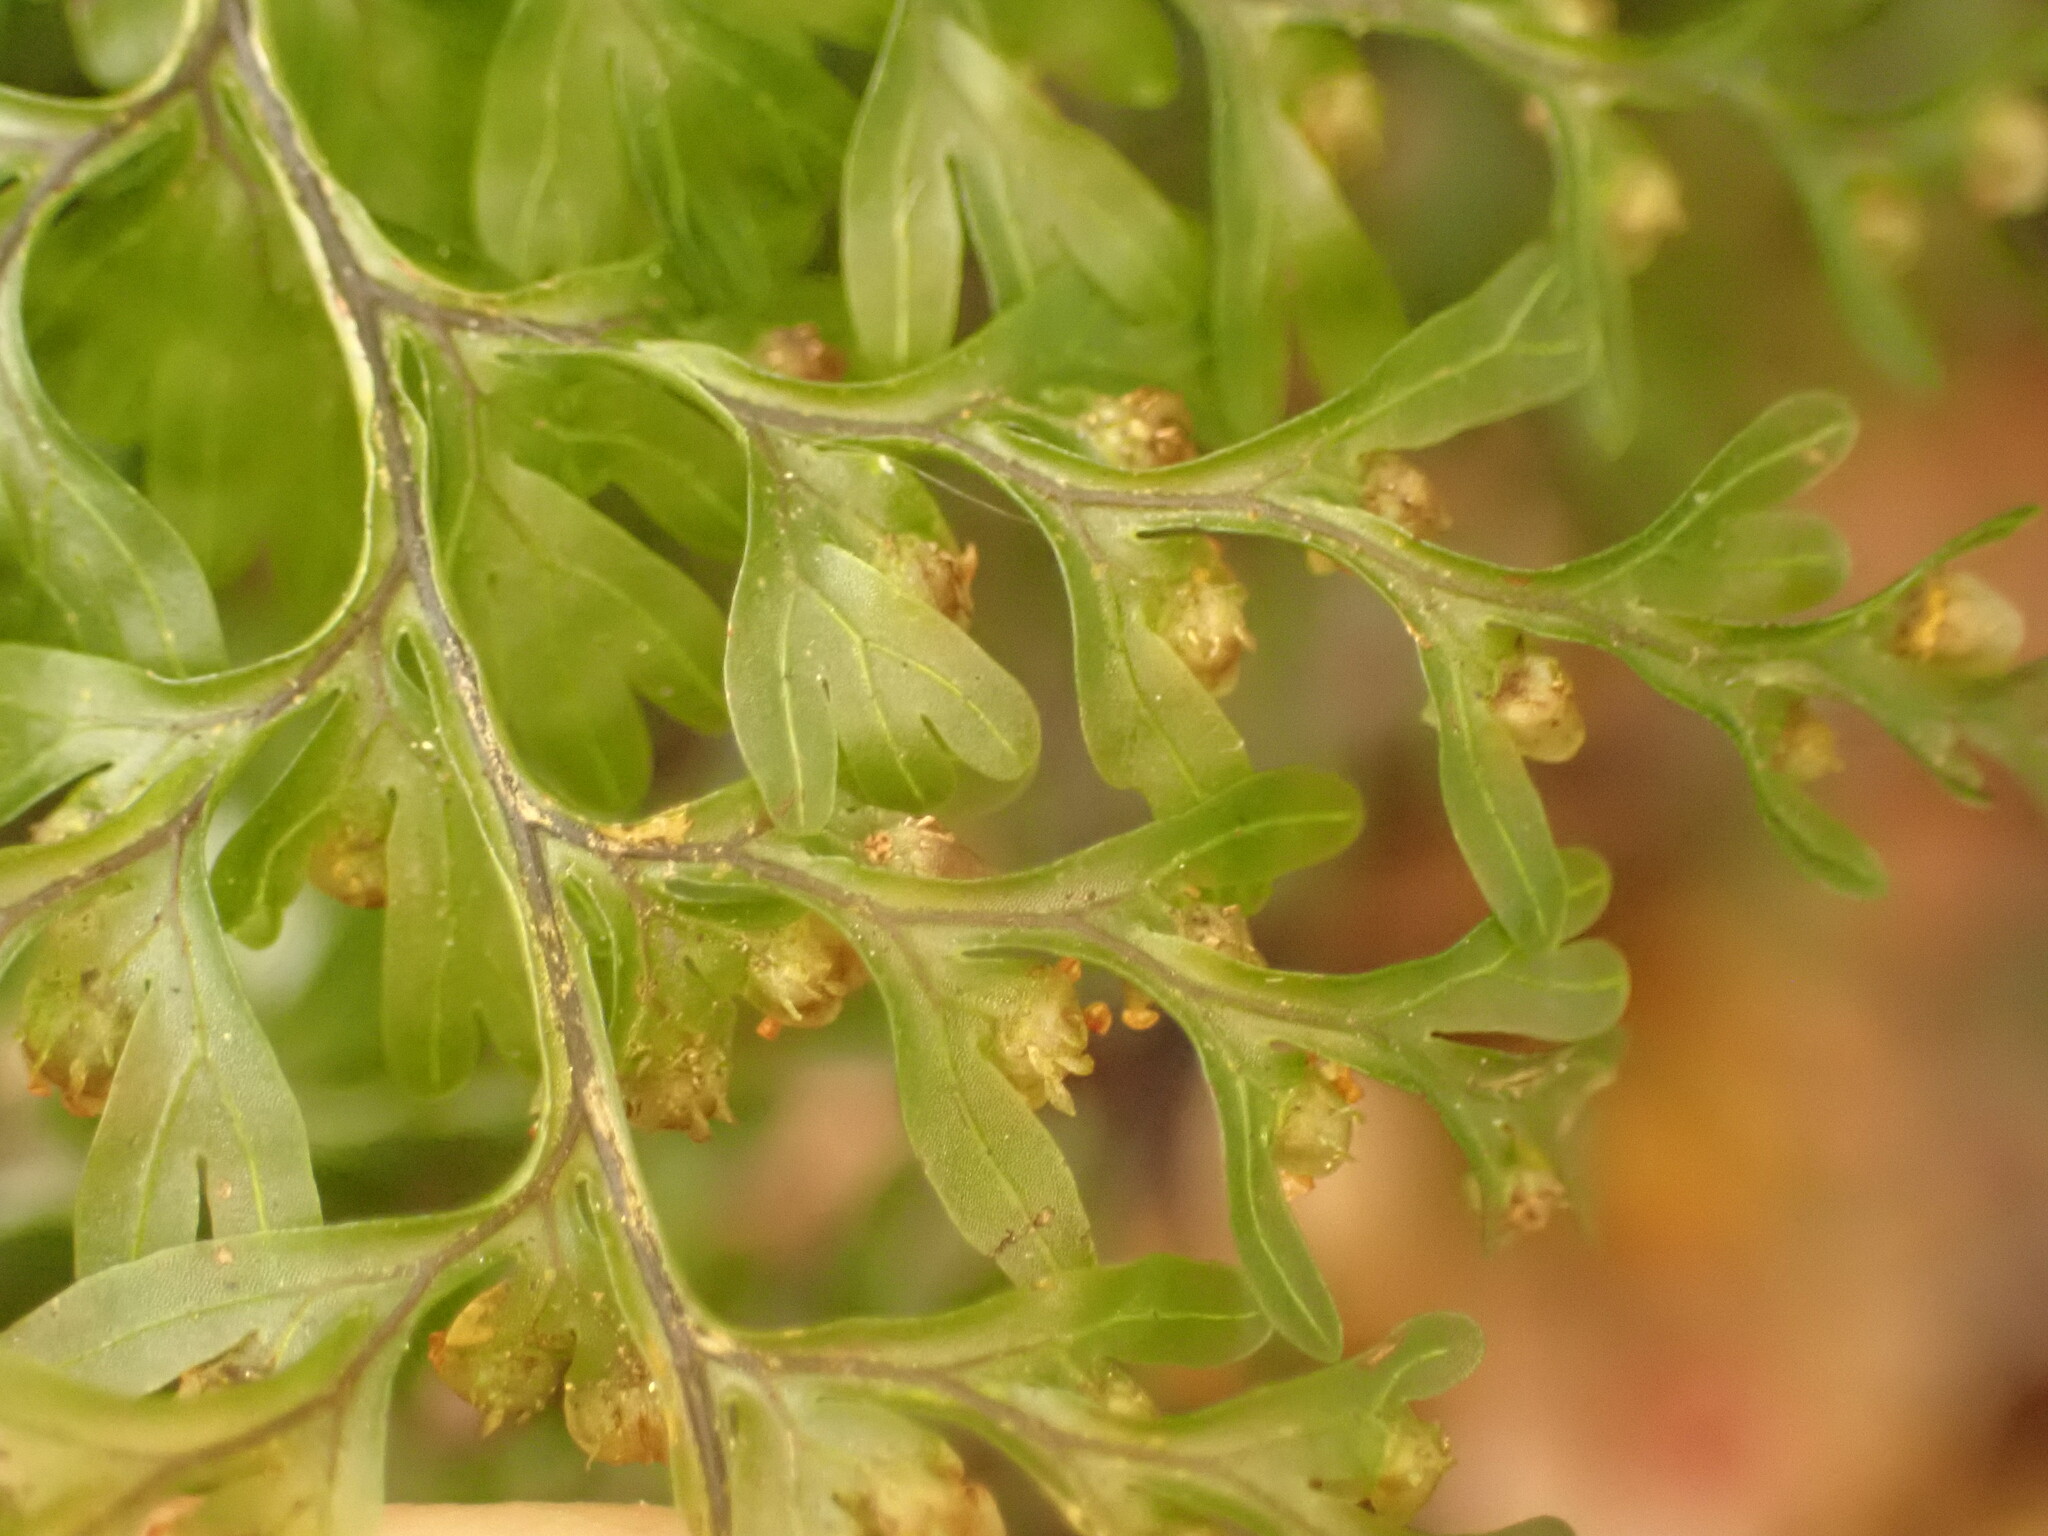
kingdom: Plantae
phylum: Tracheophyta
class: Polypodiopsida
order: Hymenophyllales
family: Hymenophyllaceae
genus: Hymenophyllum
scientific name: Hymenophyllum sanguinolentum
